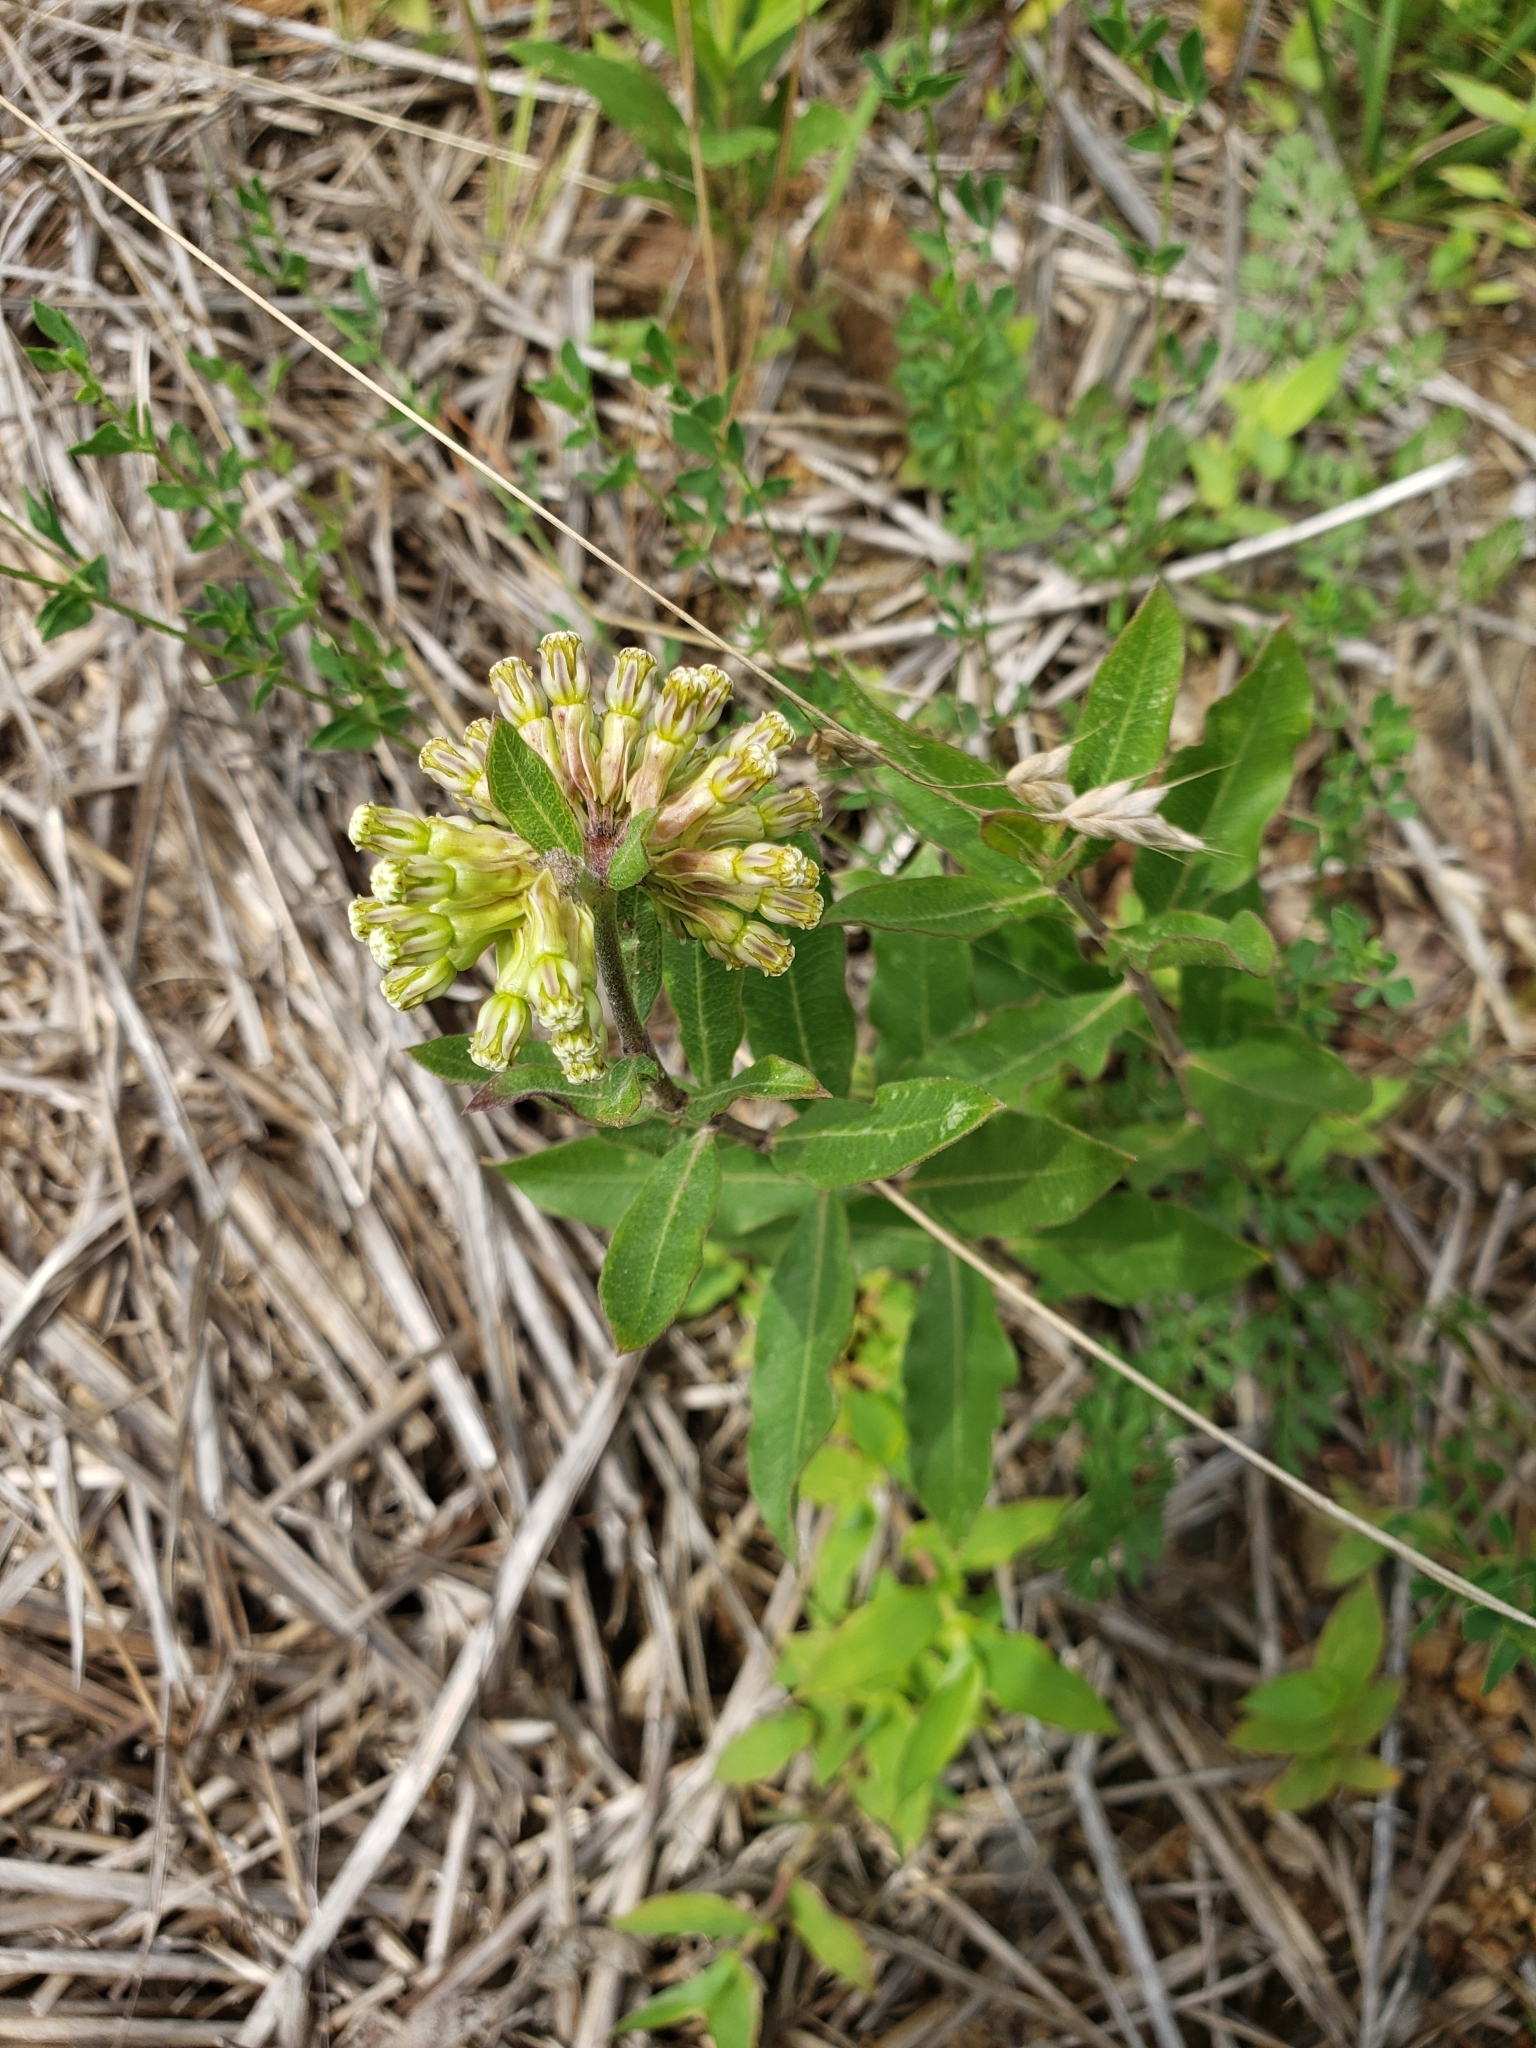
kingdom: Plantae
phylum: Tracheophyta
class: Magnoliopsida
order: Gentianales
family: Apocynaceae
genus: Asclepias
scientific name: Asclepias viridiflora
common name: Green comet milkweed
